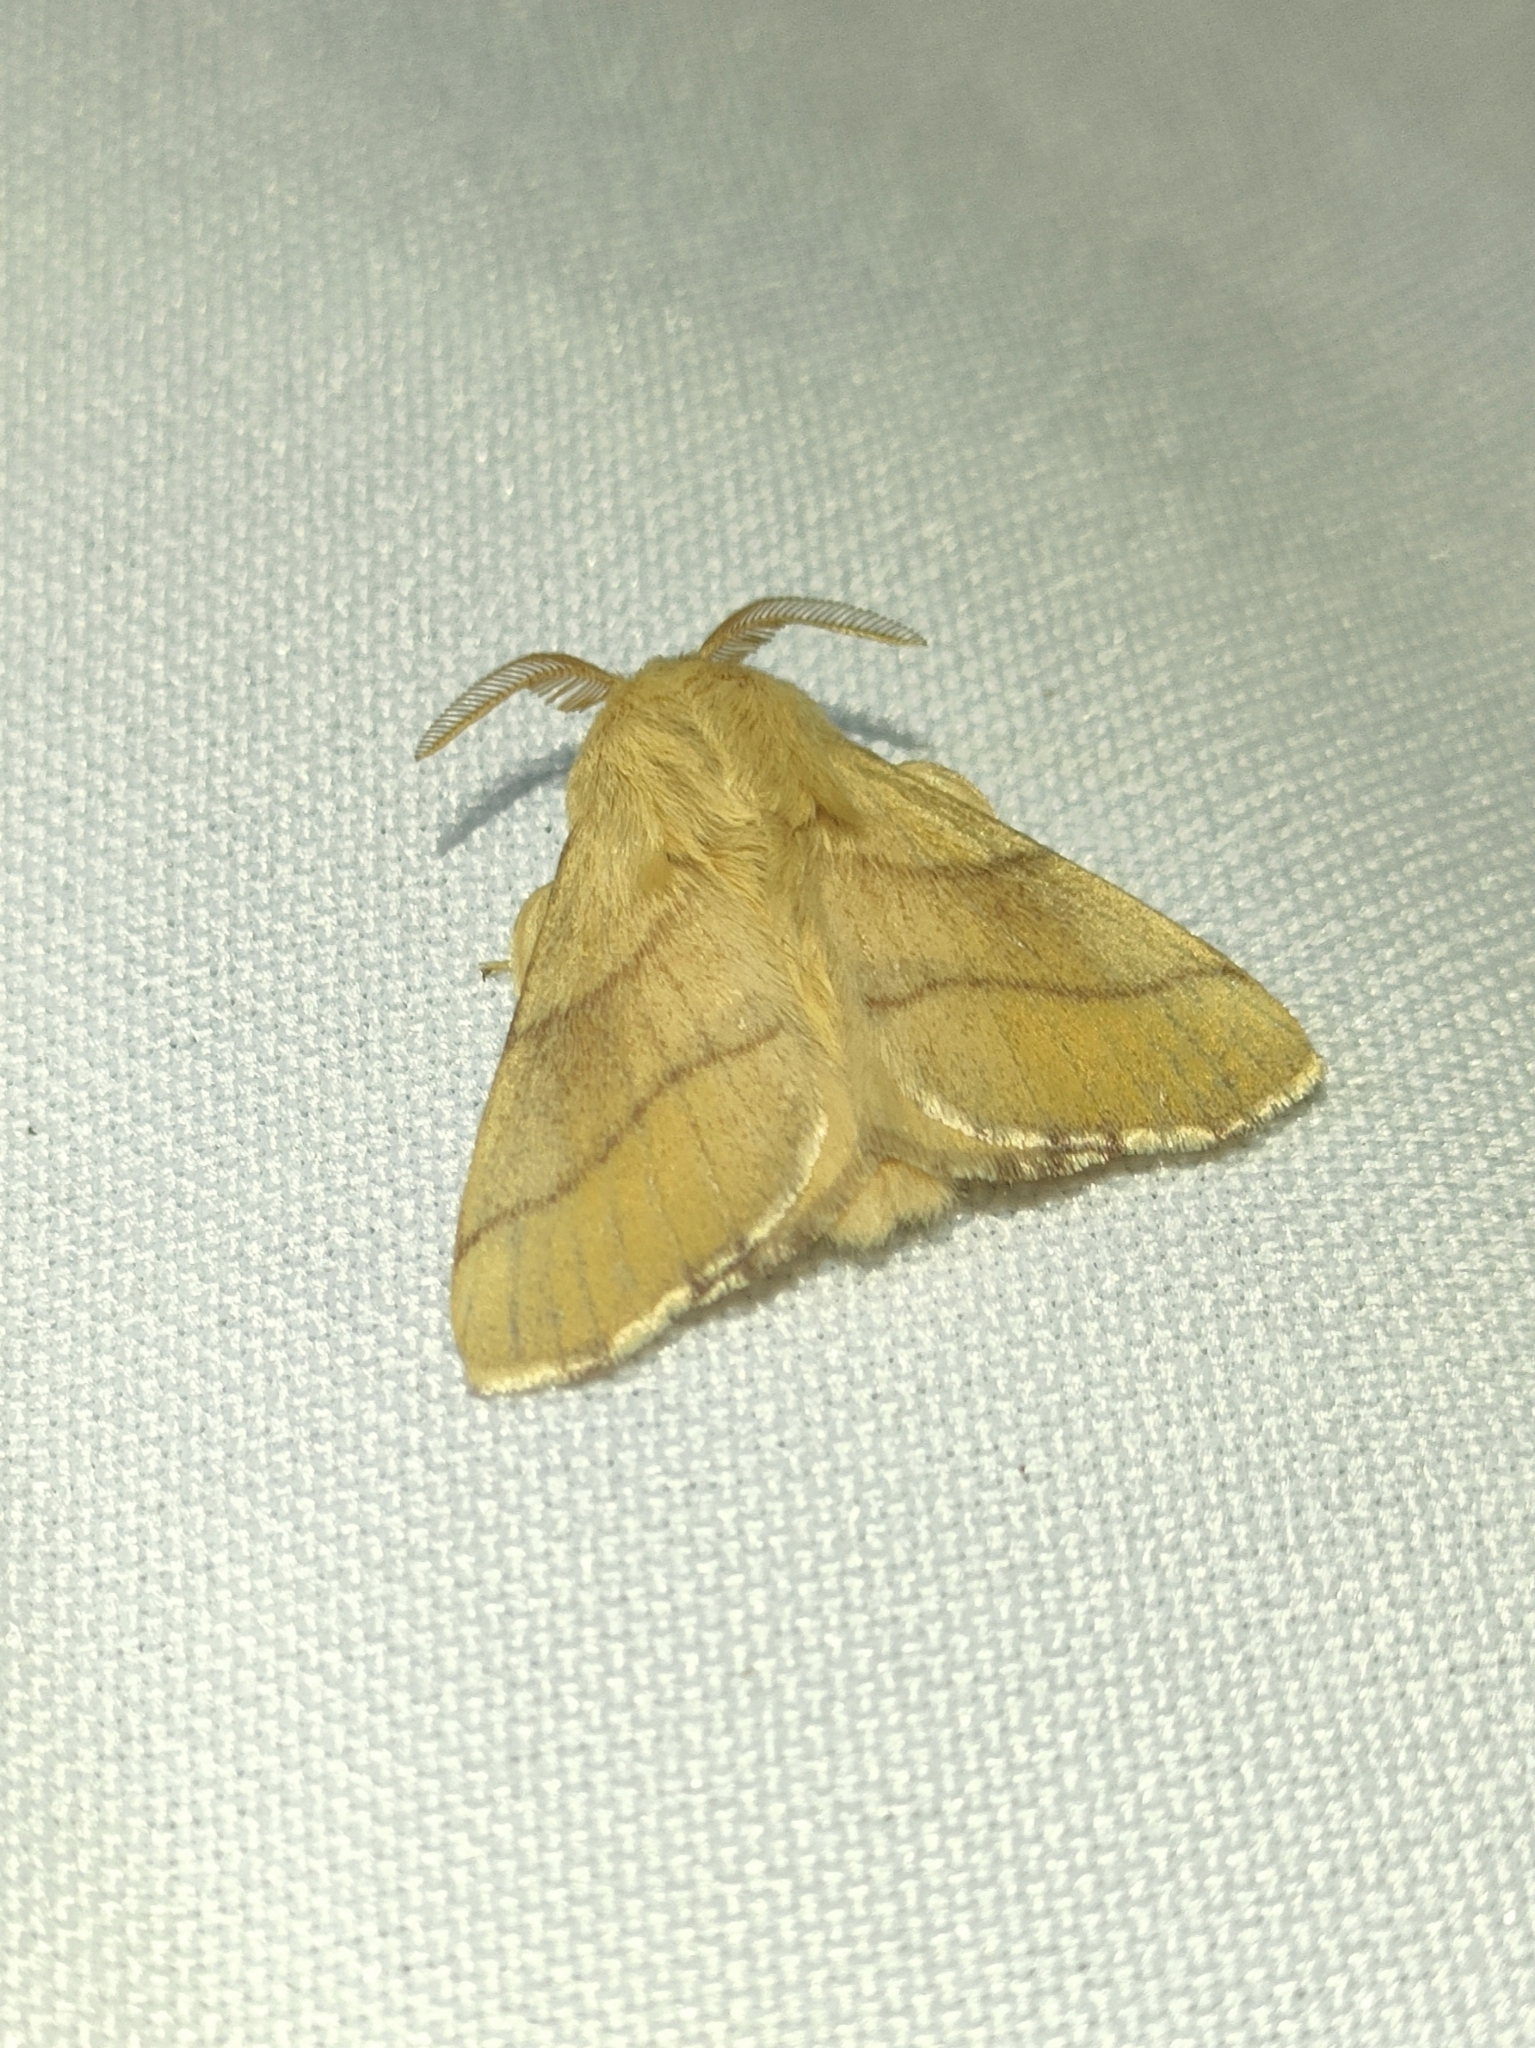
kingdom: Animalia
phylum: Arthropoda
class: Insecta
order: Lepidoptera
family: Lasiocampidae
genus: Malacosoma
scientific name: Malacosoma neustria
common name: The lackey
